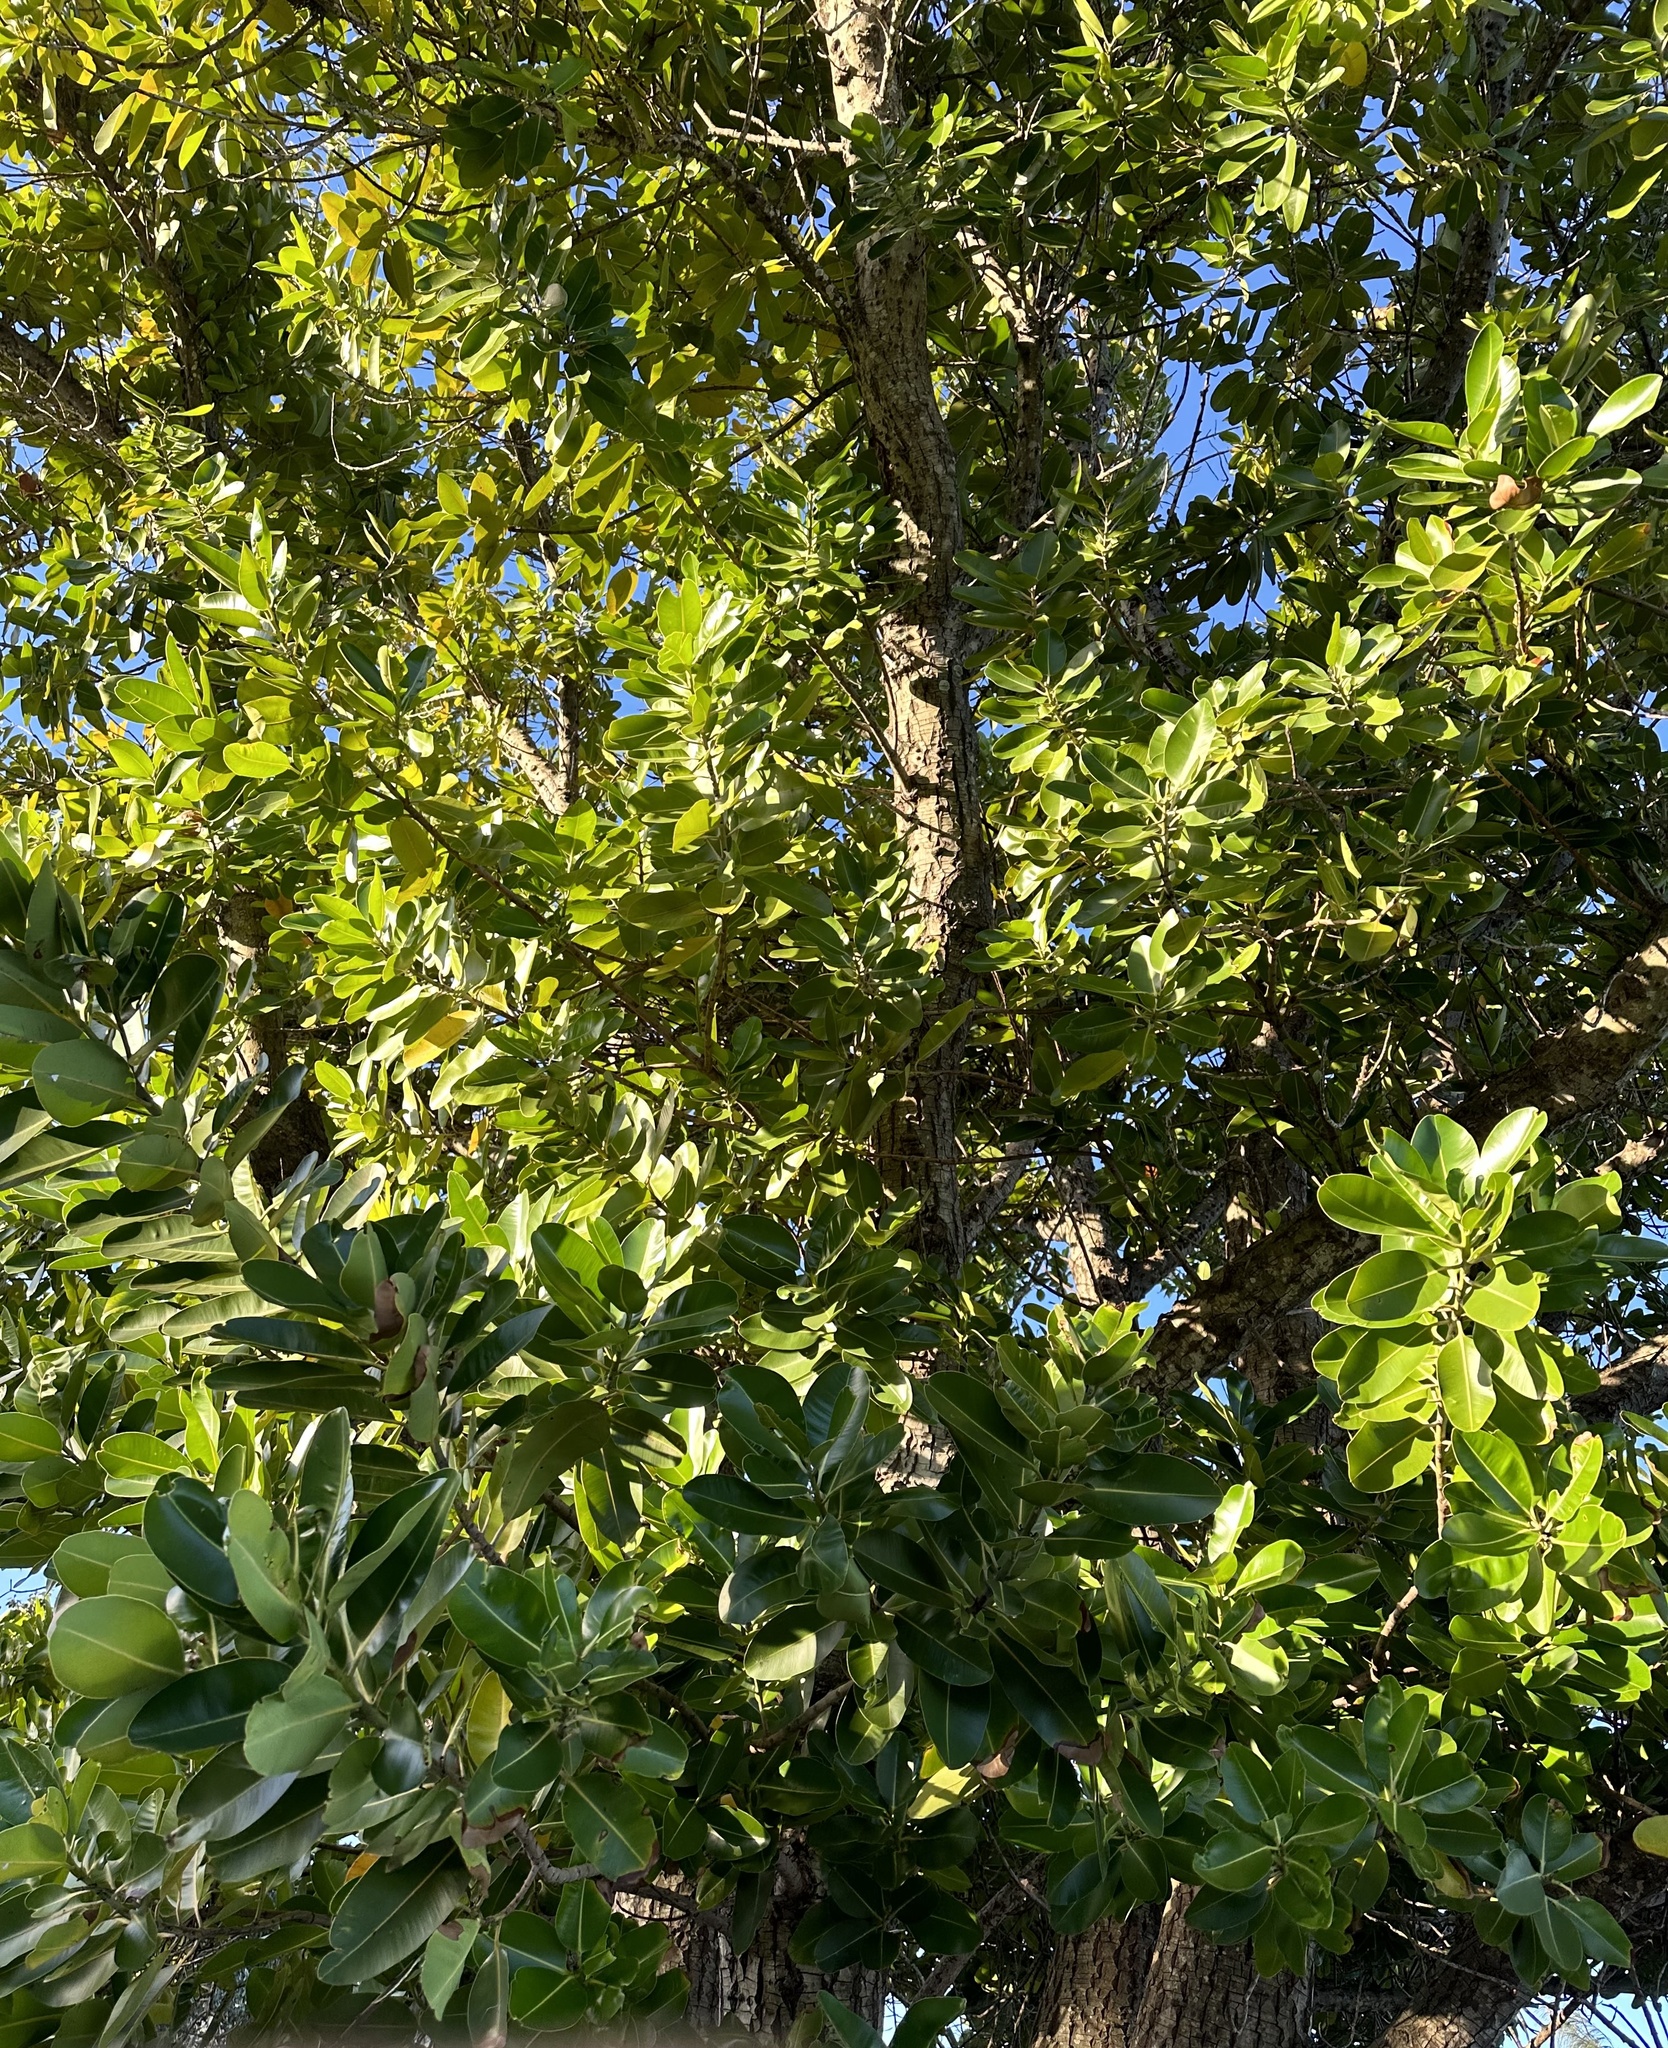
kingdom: Plantae
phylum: Tracheophyta
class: Magnoliopsida
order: Malpighiales
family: Calophyllaceae
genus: Calophyllum
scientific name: Calophyllum inophyllum
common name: Alexandrian laurel
